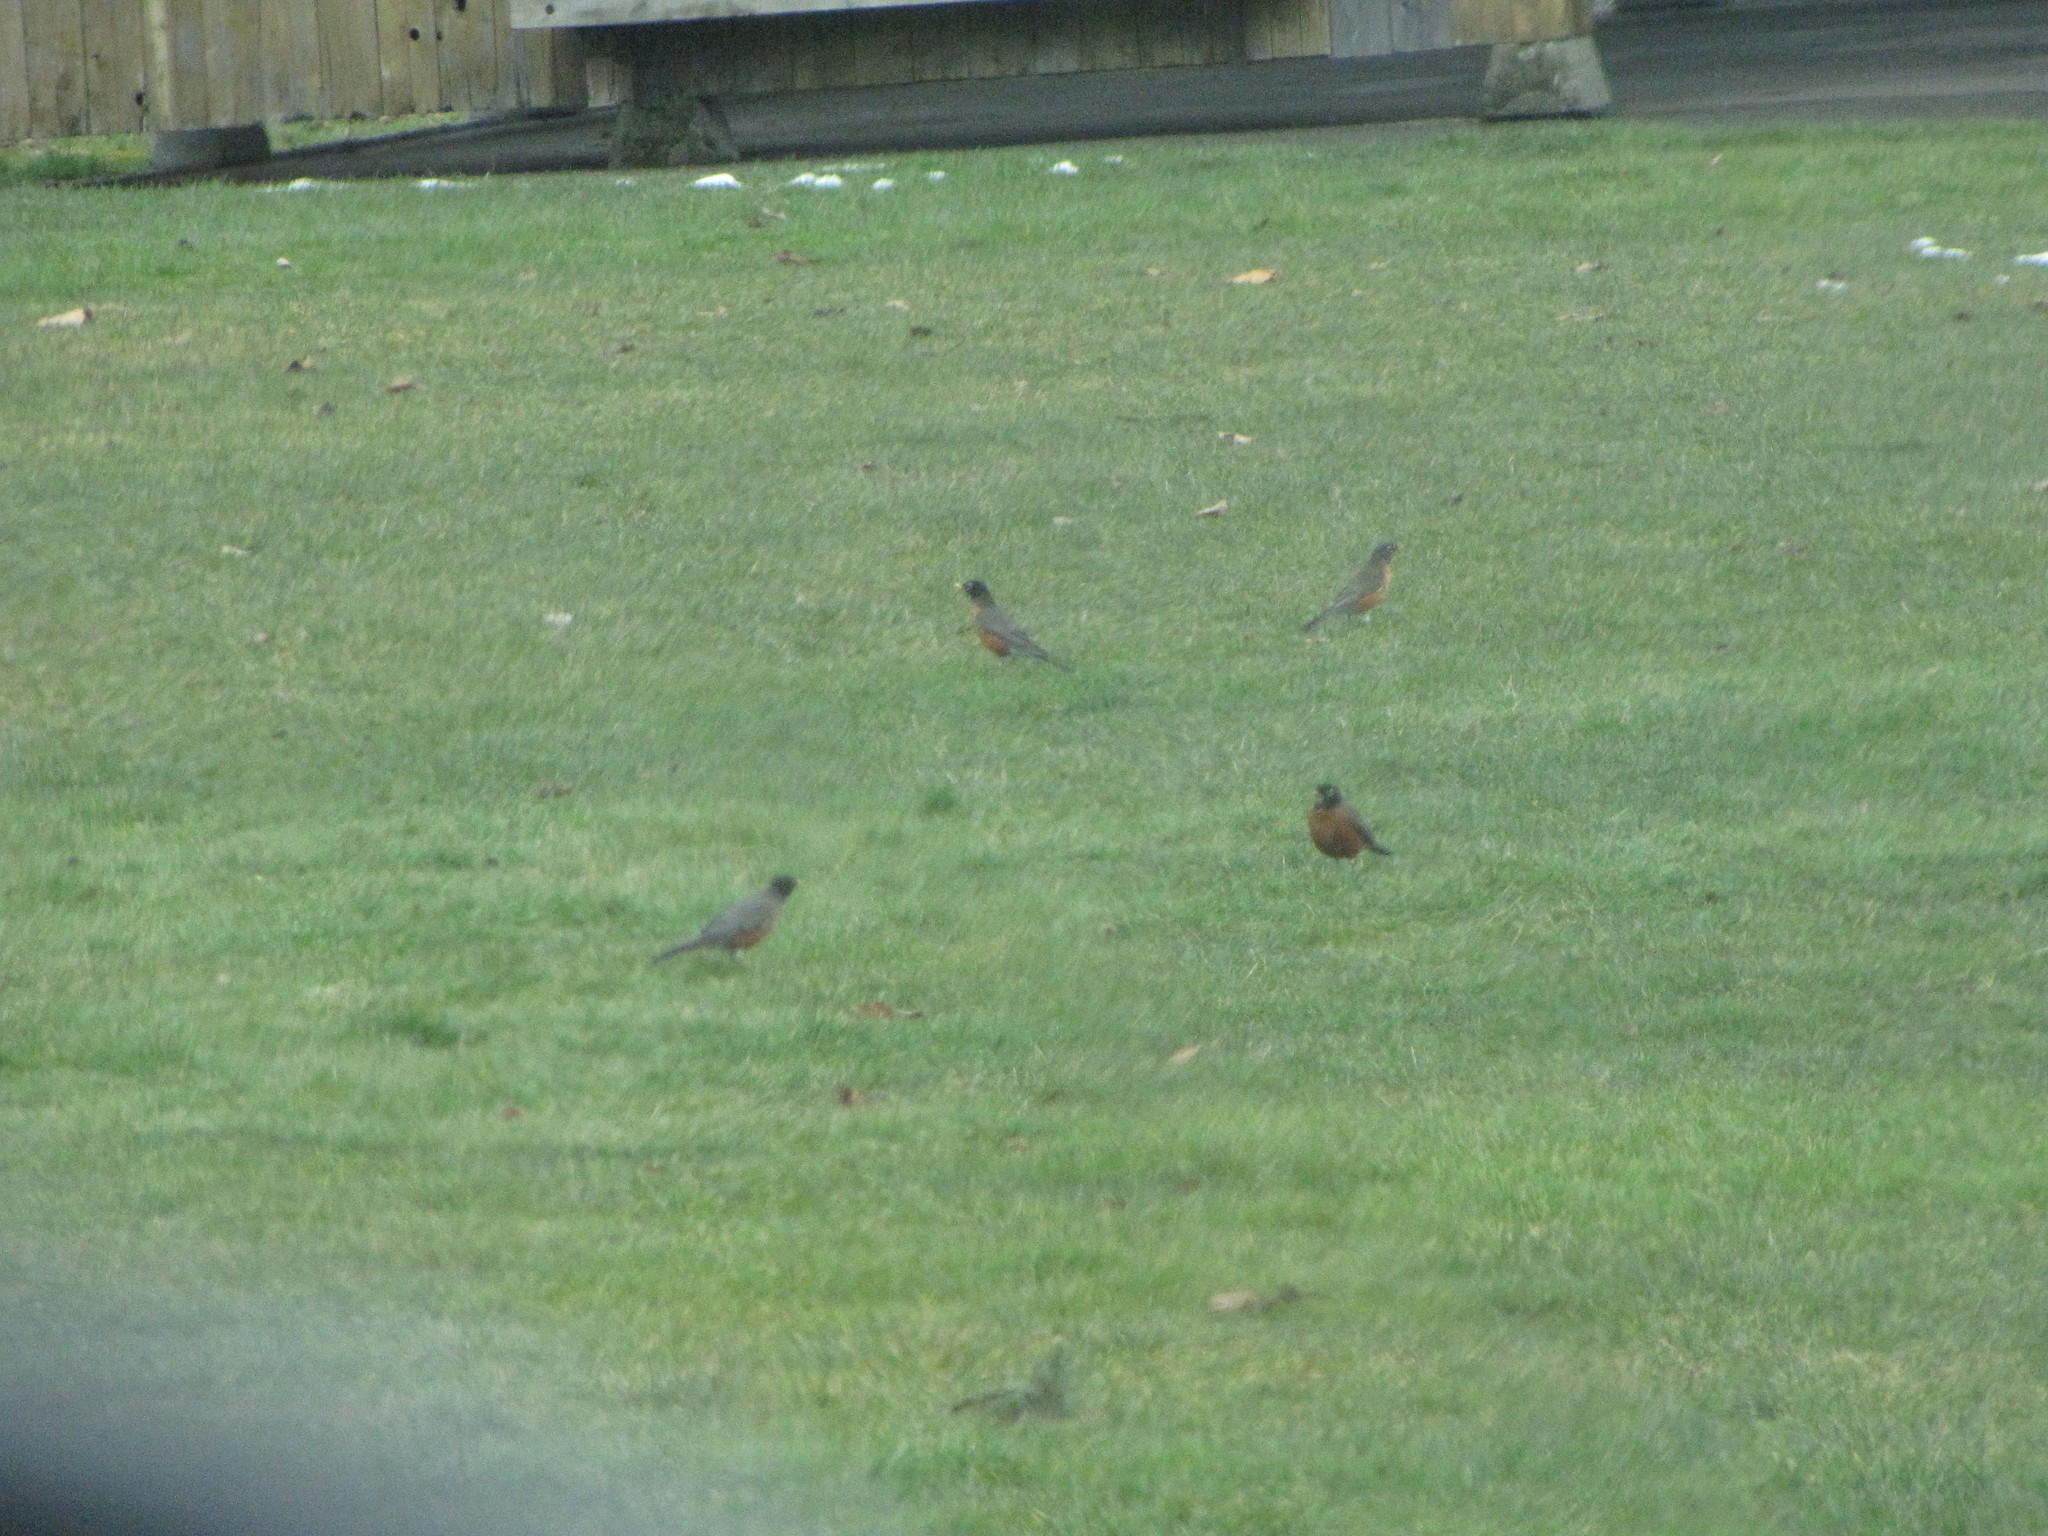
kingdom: Animalia
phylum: Chordata
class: Aves
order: Passeriformes
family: Turdidae
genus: Turdus
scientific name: Turdus migratorius
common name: American robin
